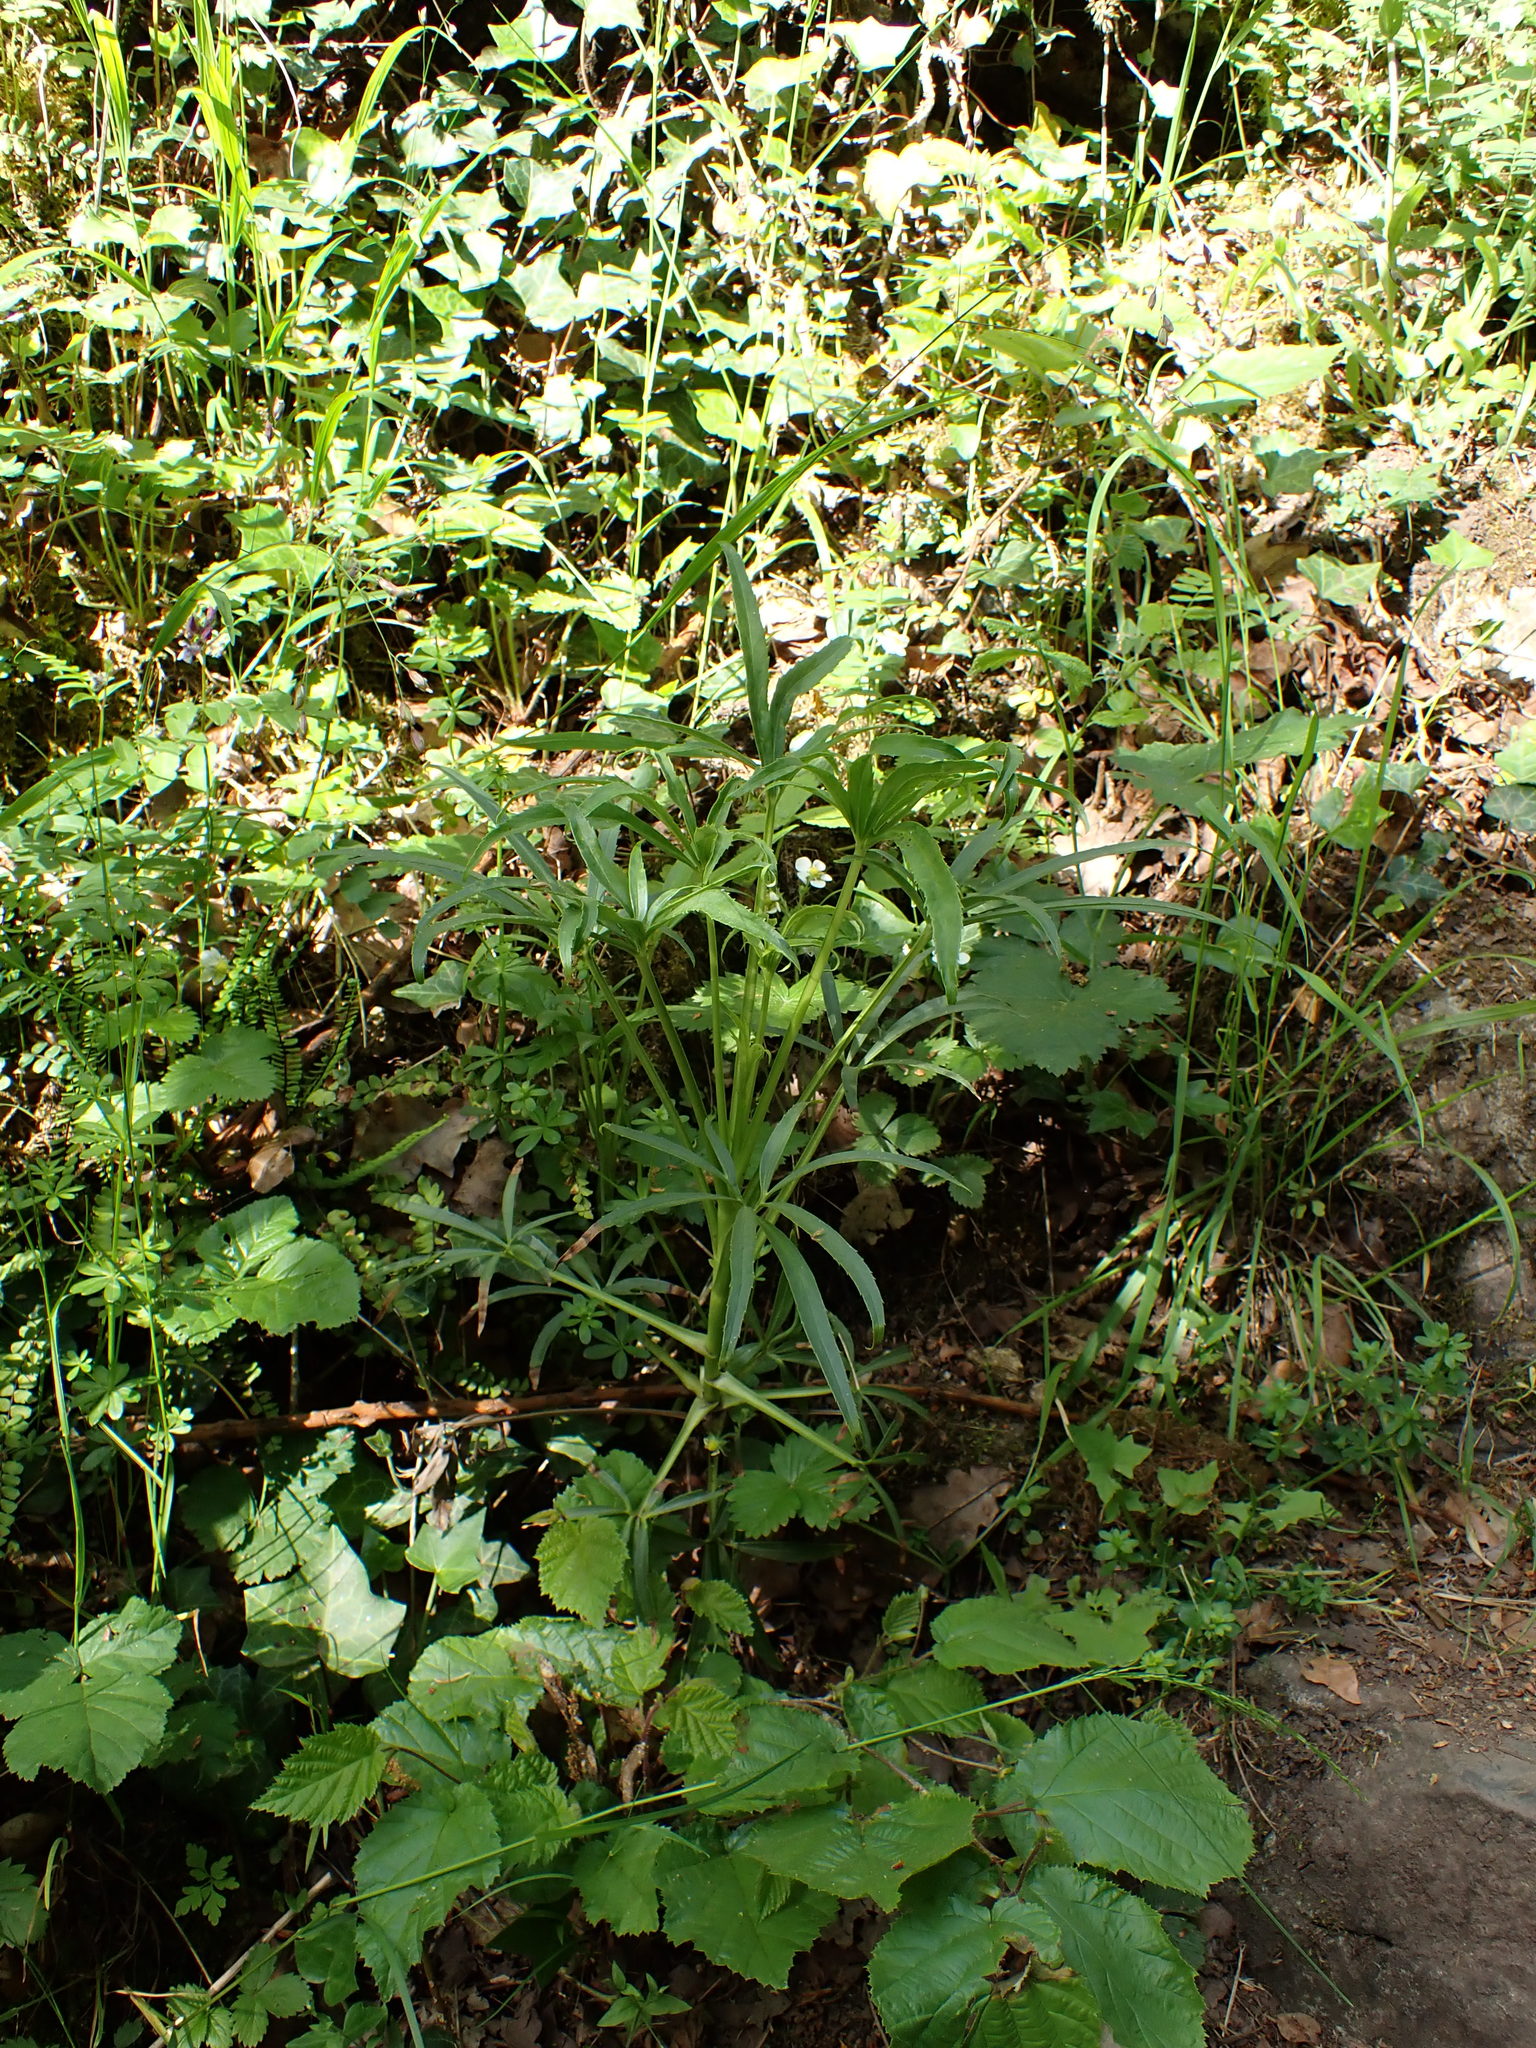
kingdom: Plantae
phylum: Tracheophyta
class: Magnoliopsida
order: Ranunculales
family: Ranunculaceae
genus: Helleborus
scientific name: Helleborus foetidus
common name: Stinking hellebore
